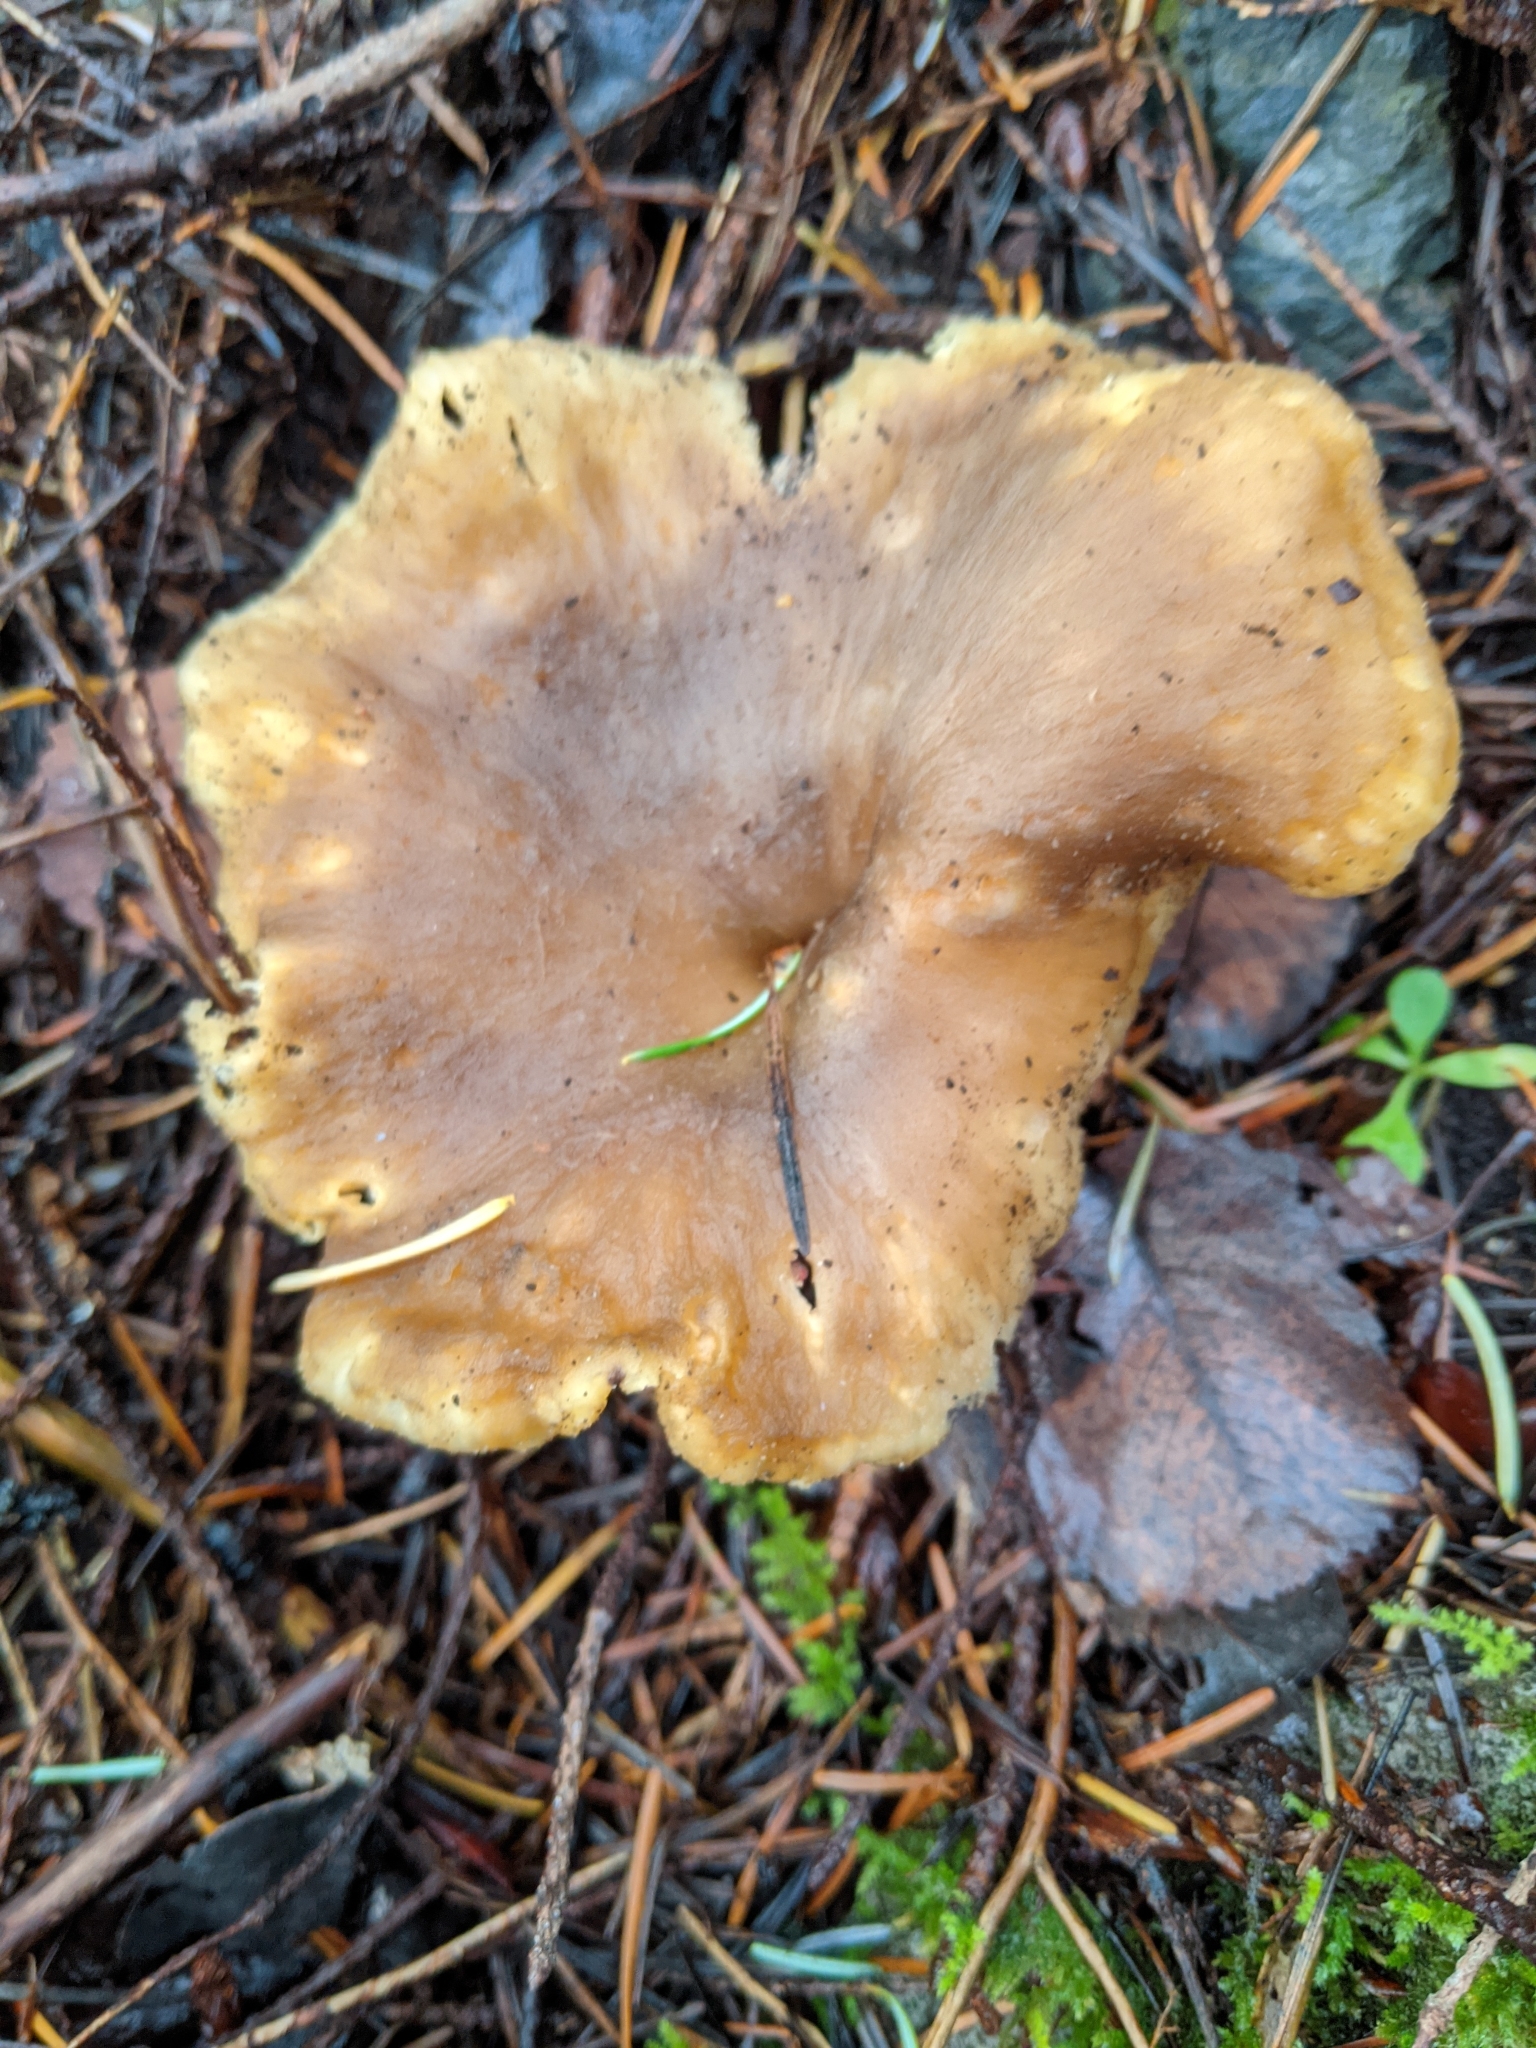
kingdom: Fungi
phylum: Basidiomycota
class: Agaricomycetes
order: Cantharellales
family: Hydnaceae
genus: Craterellus
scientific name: Craterellus tubaeformis
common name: Yellowfoot
